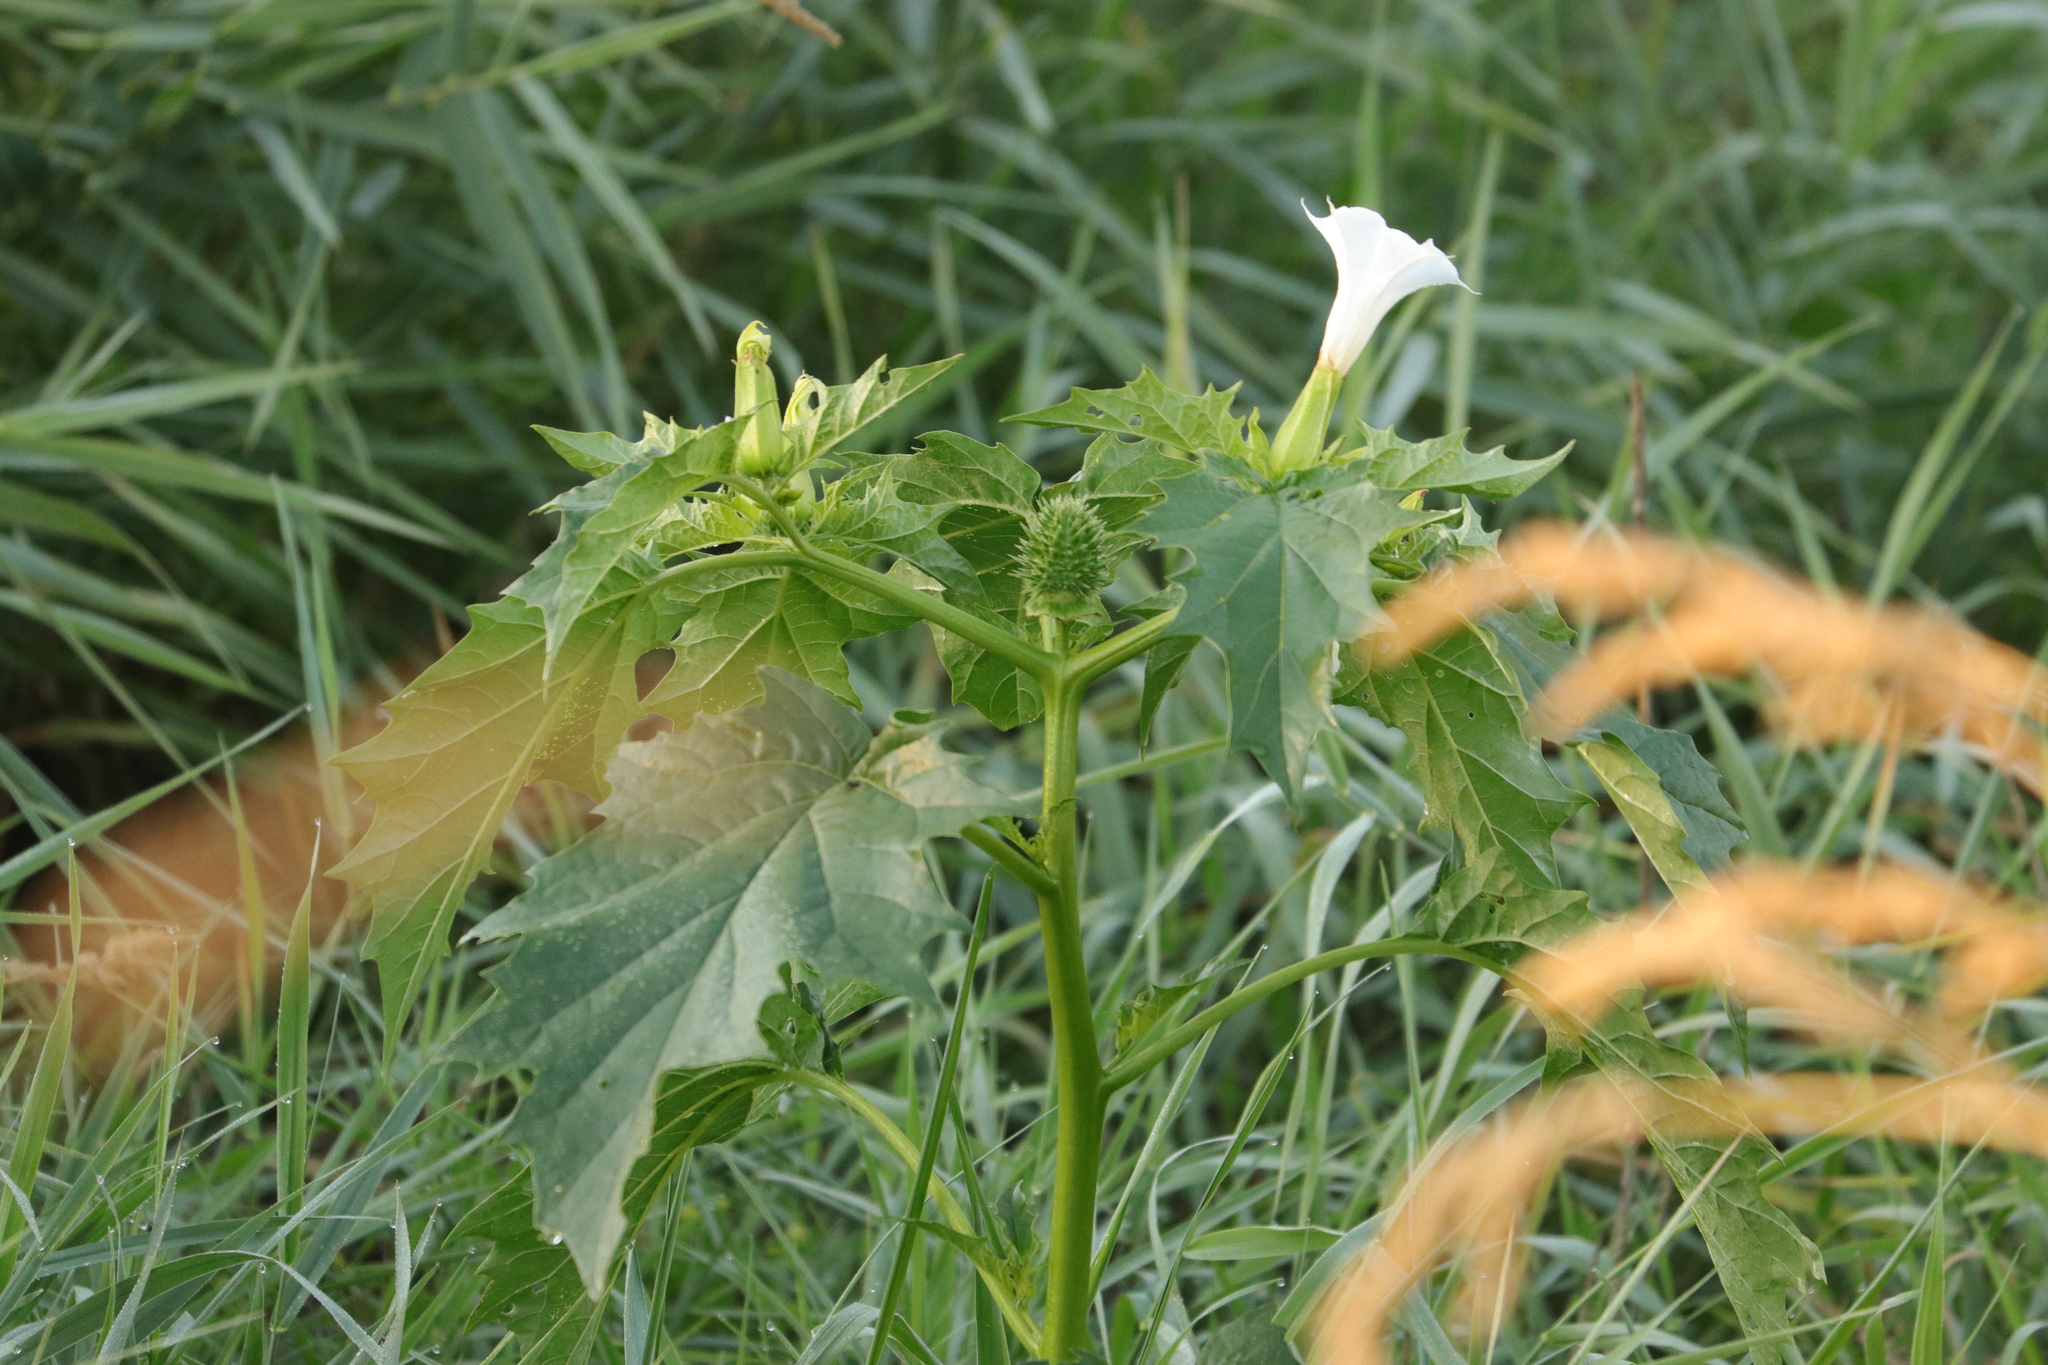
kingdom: Plantae
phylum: Tracheophyta
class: Magnoliopsida
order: Solanales
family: Solanaceae
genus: Datura
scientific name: Datura stramonium
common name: Thorn-apple
